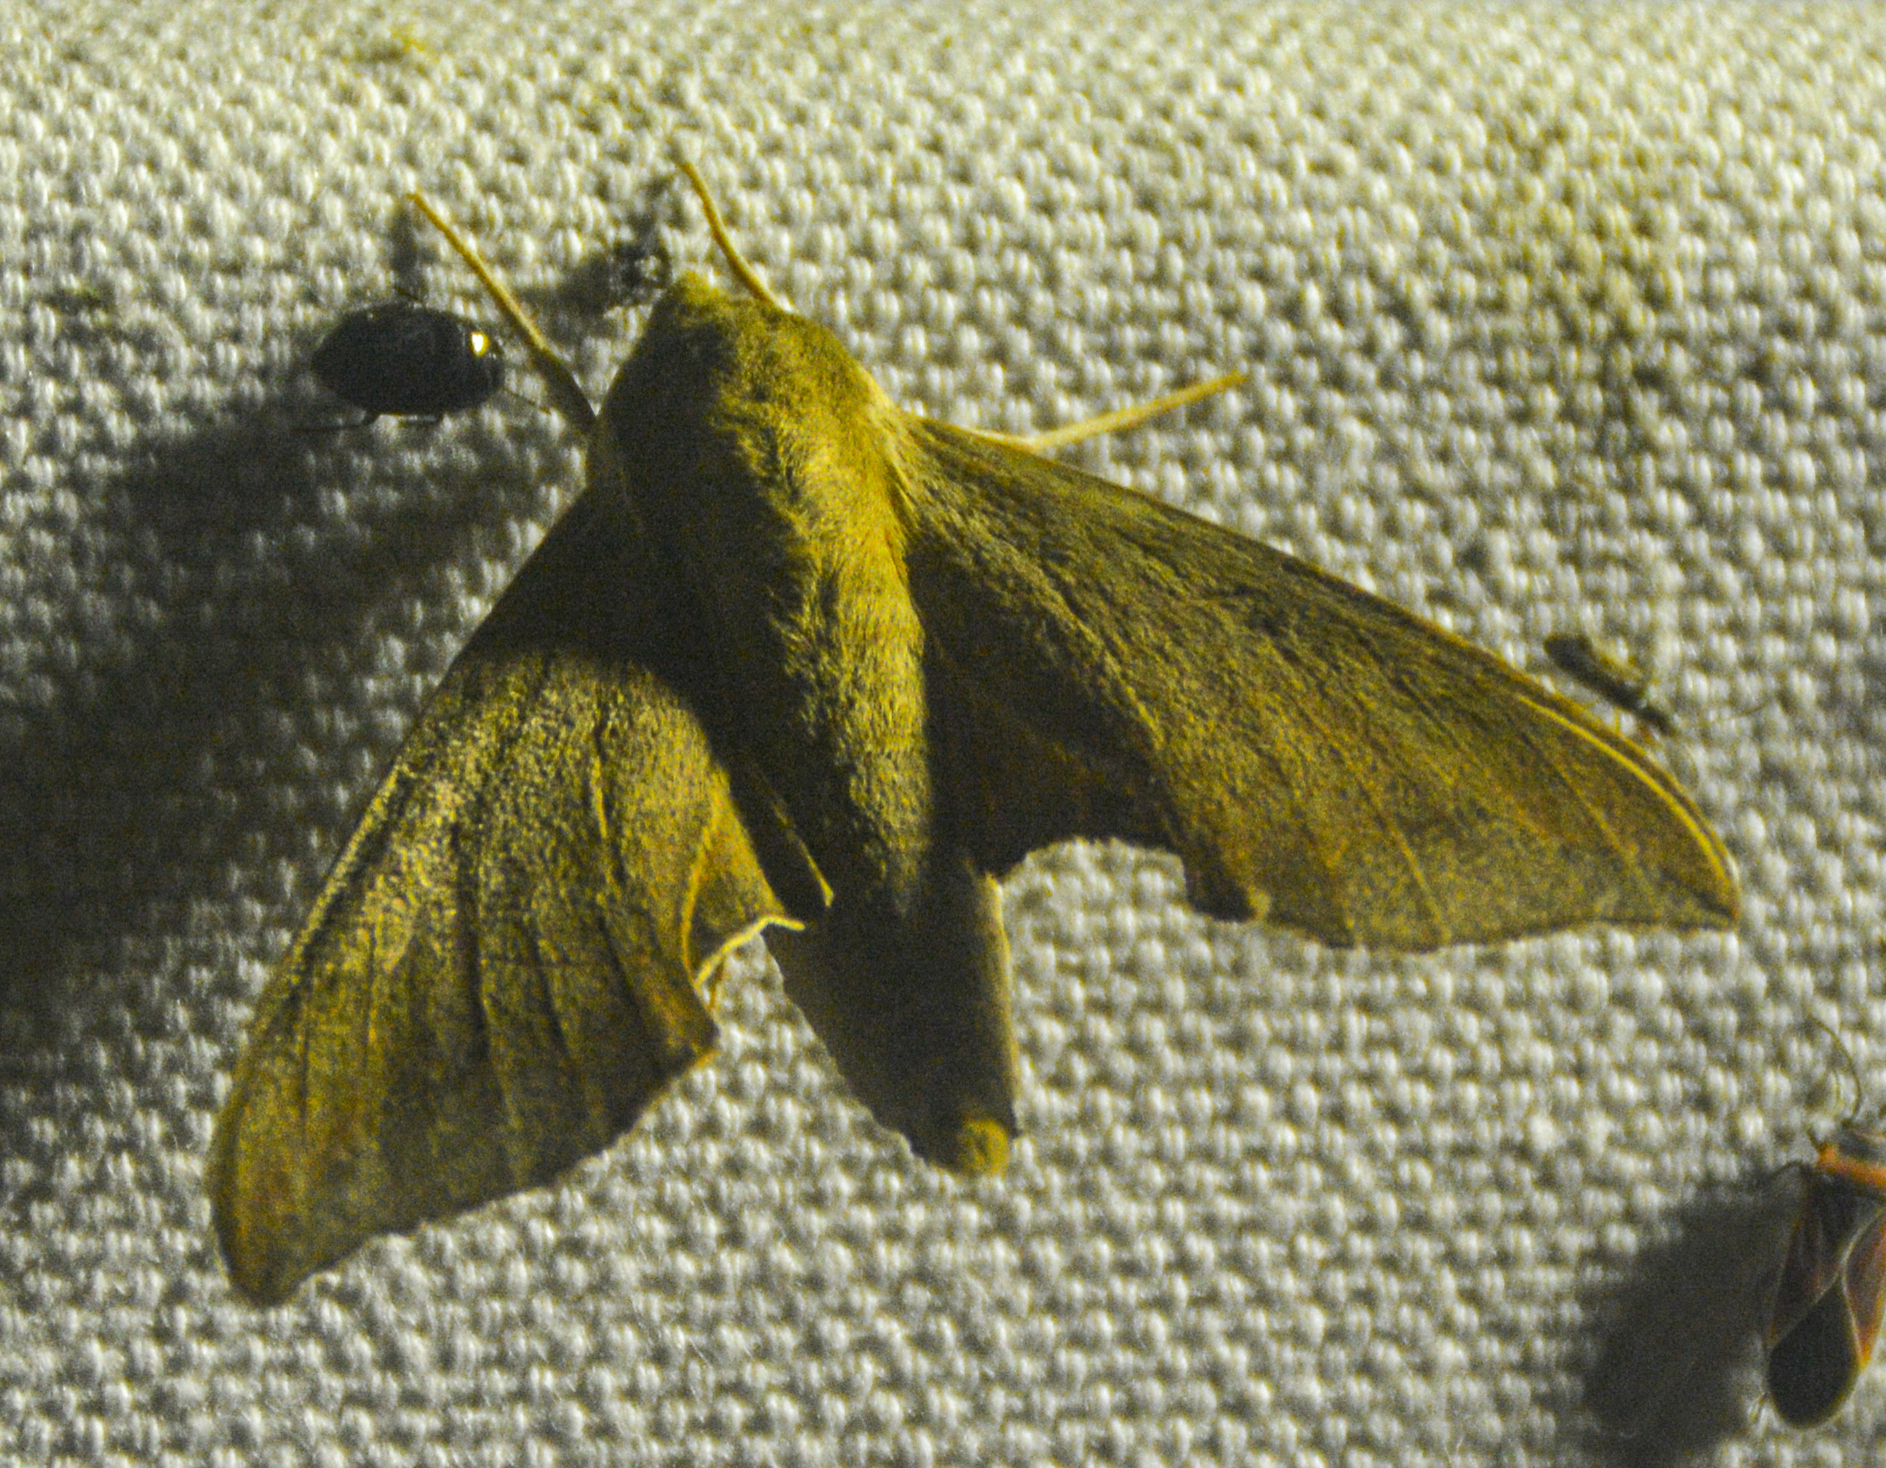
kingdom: Animalia
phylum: Arthropoda
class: Insecta
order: Lepidoptera
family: Sphingidae
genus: Darapsa
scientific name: Darapsa myron
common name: Hog sphinx
